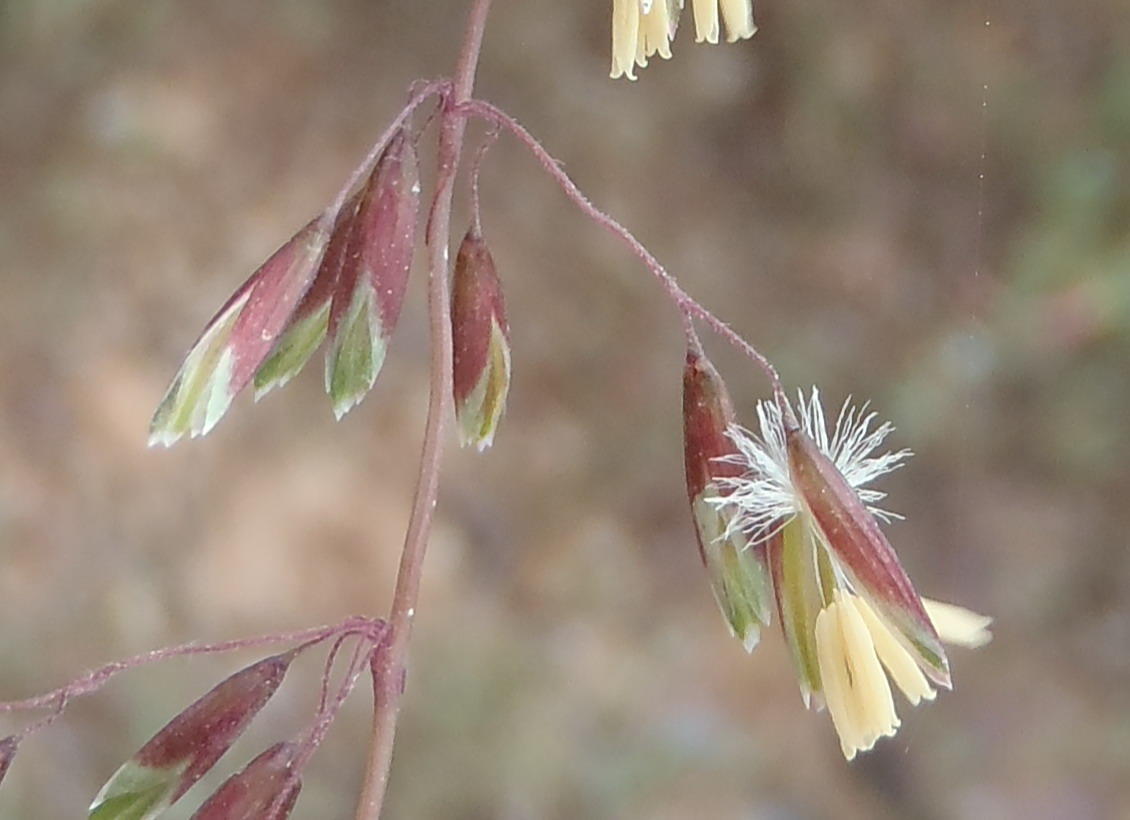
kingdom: Plantae
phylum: Tracheophyta
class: Liliopsida
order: Poales
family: Poaceae
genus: Ehrharta
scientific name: Ehrharta calycina
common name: Perennial veldtgrass
